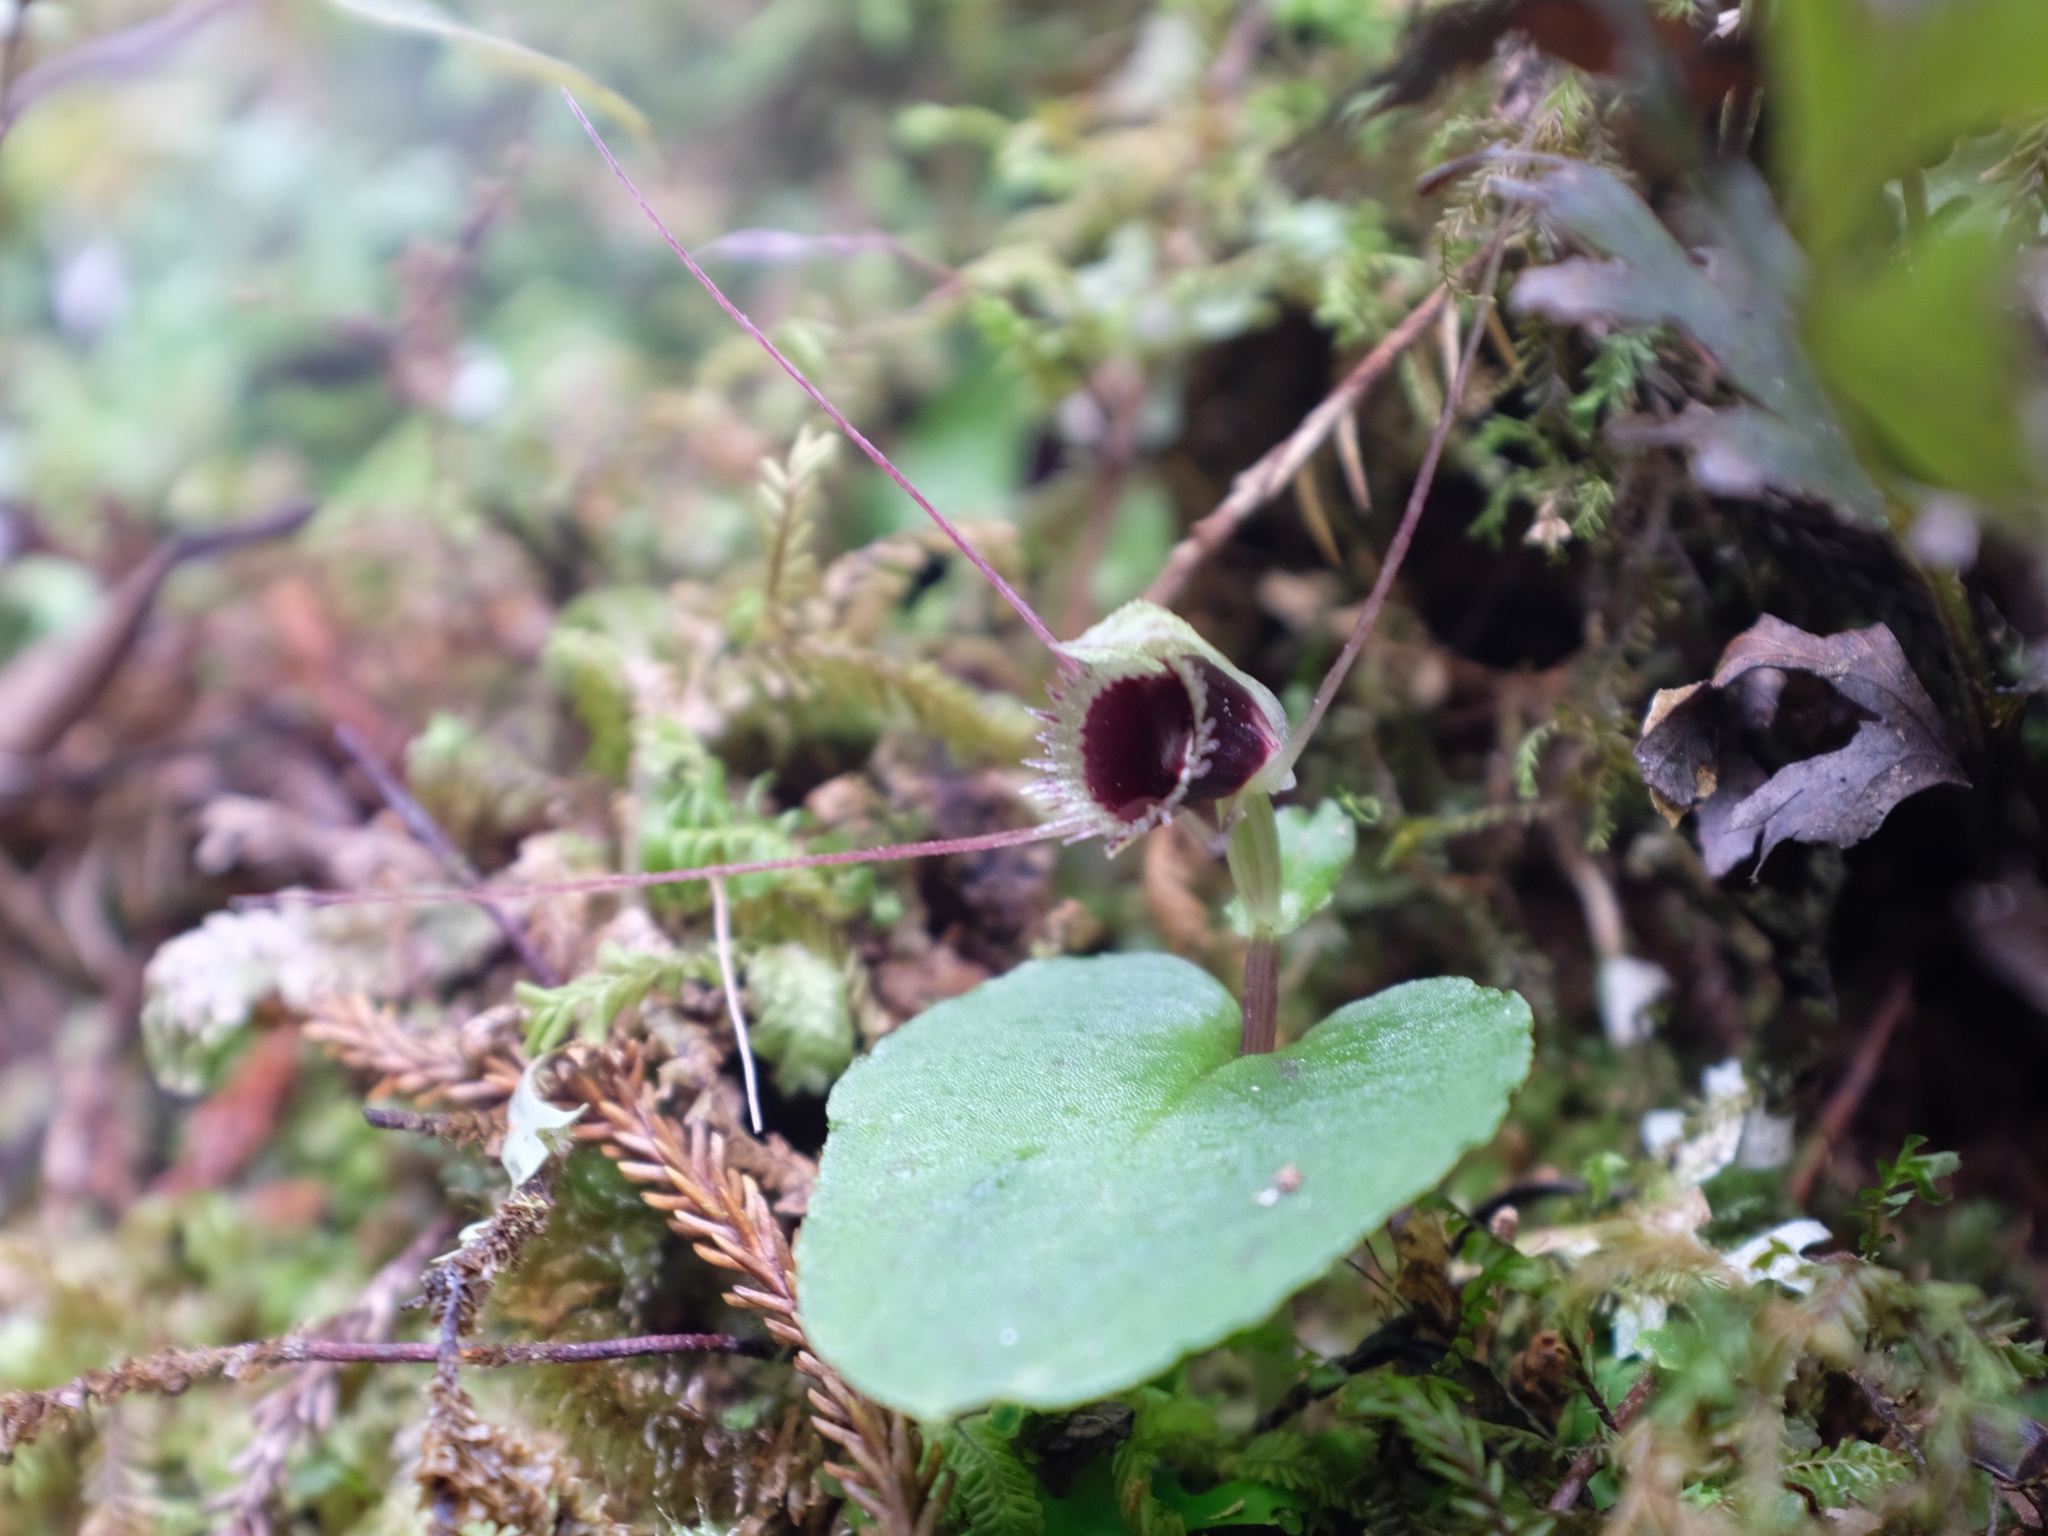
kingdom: Plantae
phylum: Tracheophyta
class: Liliopsida
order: Asparagales
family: Orchidaceae
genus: Corybas
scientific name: Corybas oblongus
